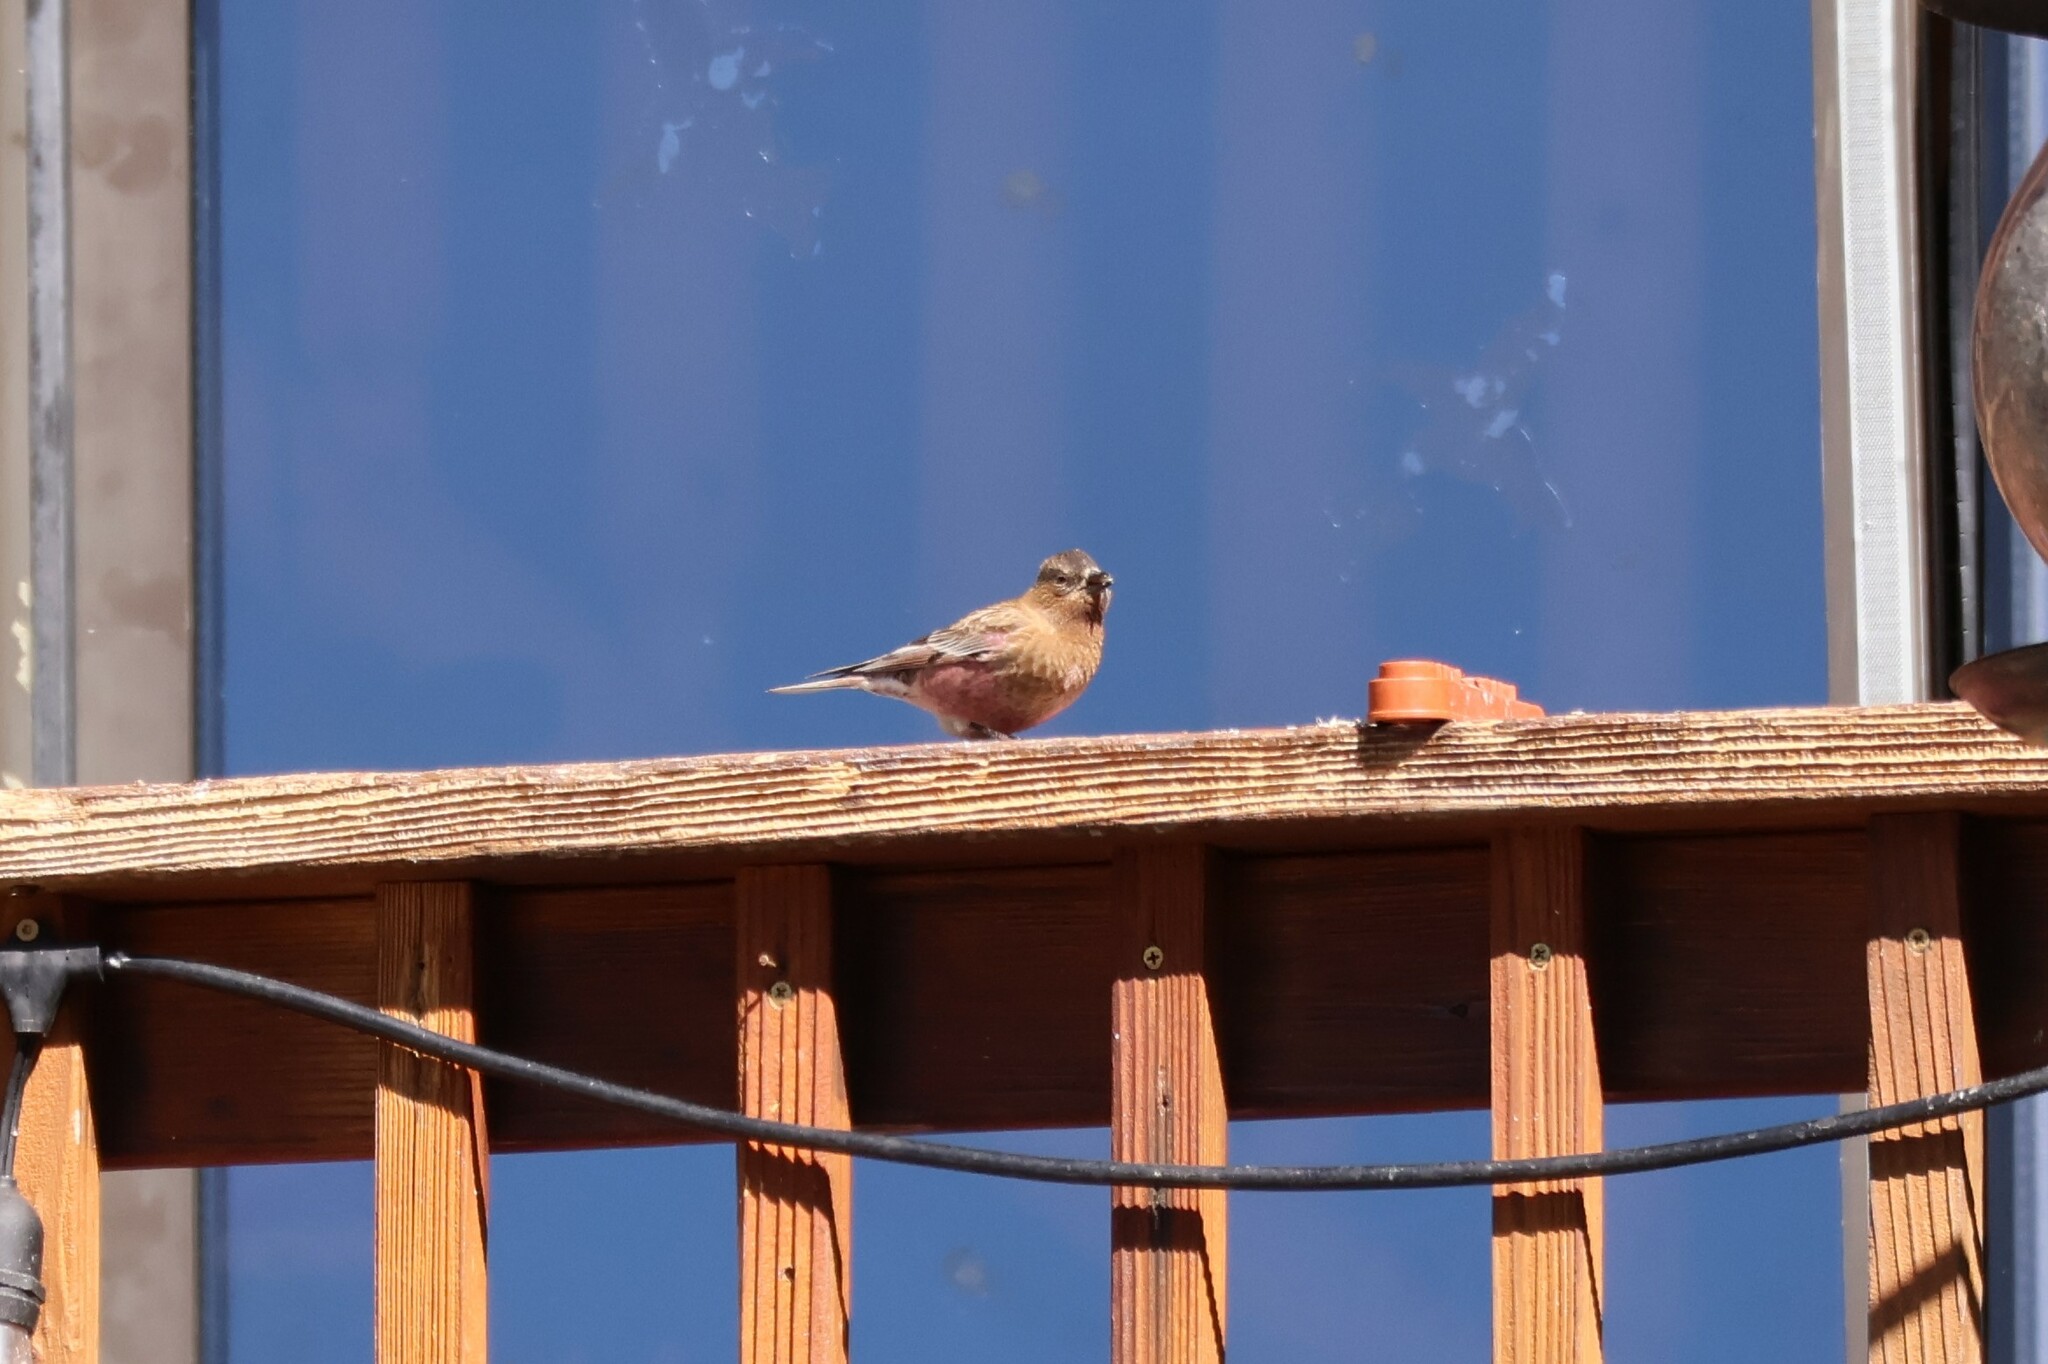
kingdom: Animalia
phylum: Chordata
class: Aves
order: Passeriformes
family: Fringillidae
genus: Leucosticte
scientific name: Leucosticte australis
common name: Brown-capped rosy-finch
